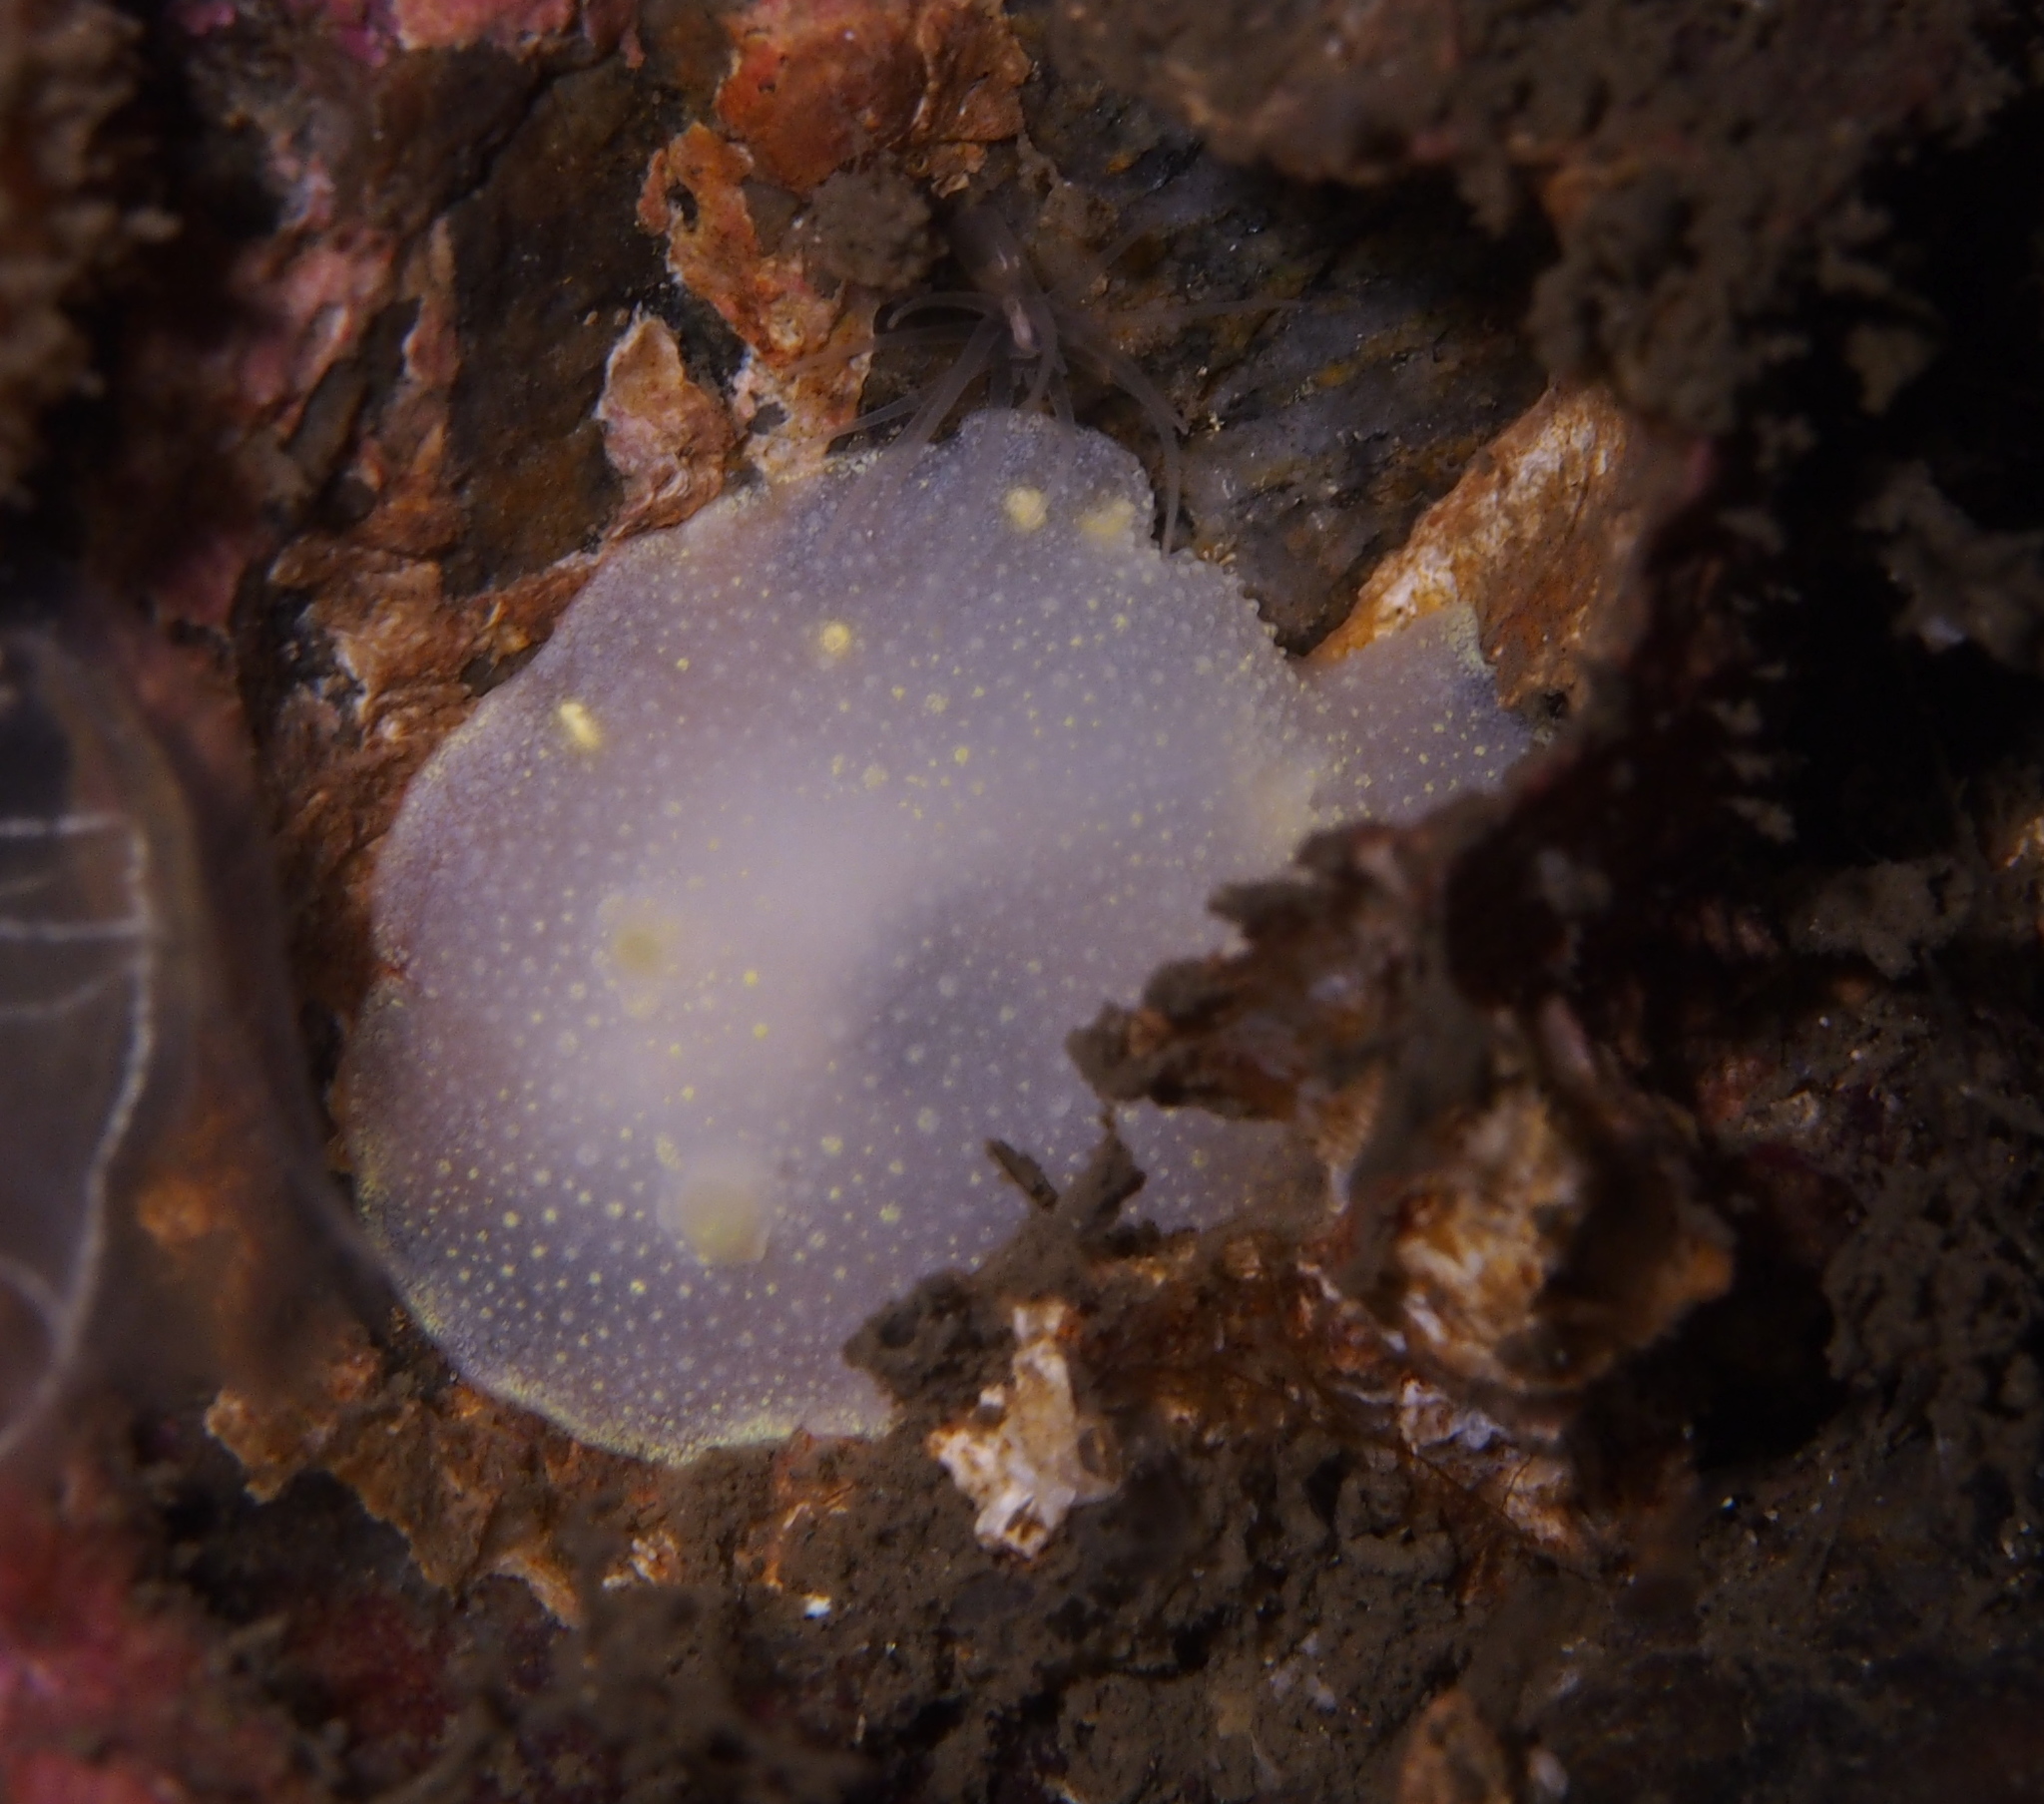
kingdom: Animalia
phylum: Mollusca
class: Gastropoda
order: Nudibranchia
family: Cadlinidae
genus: Cadlina
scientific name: Cadlina laevis
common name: White atlantic cadlina
